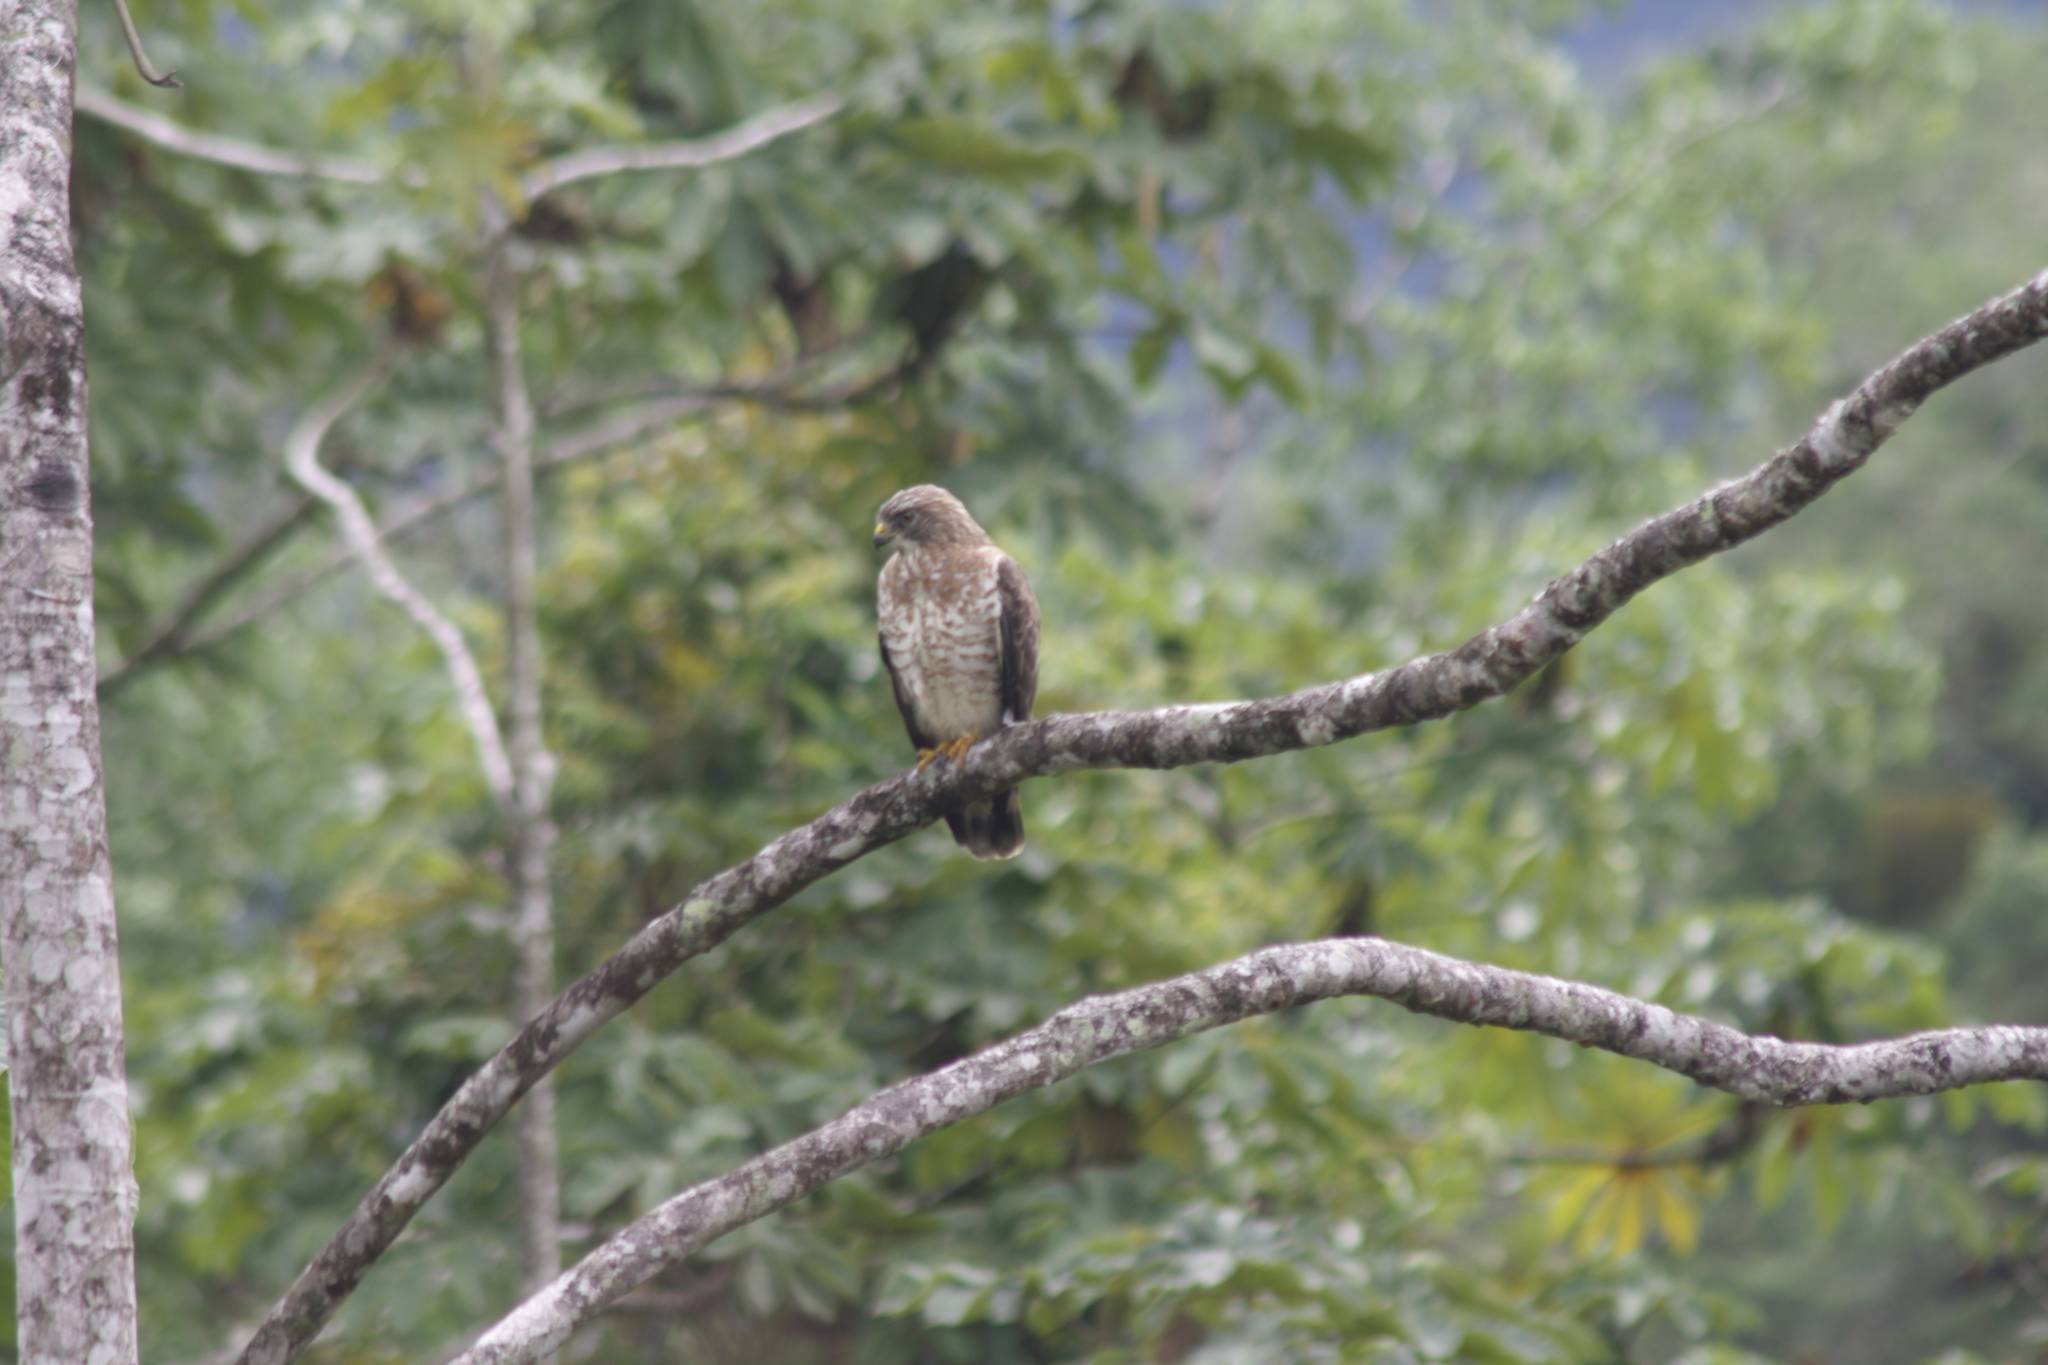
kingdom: Animalia
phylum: Chordata
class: Aves
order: Accipitriformes
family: Accipitridae
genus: Buteo
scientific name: Buteo platypterus
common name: Broad-winged hawk
